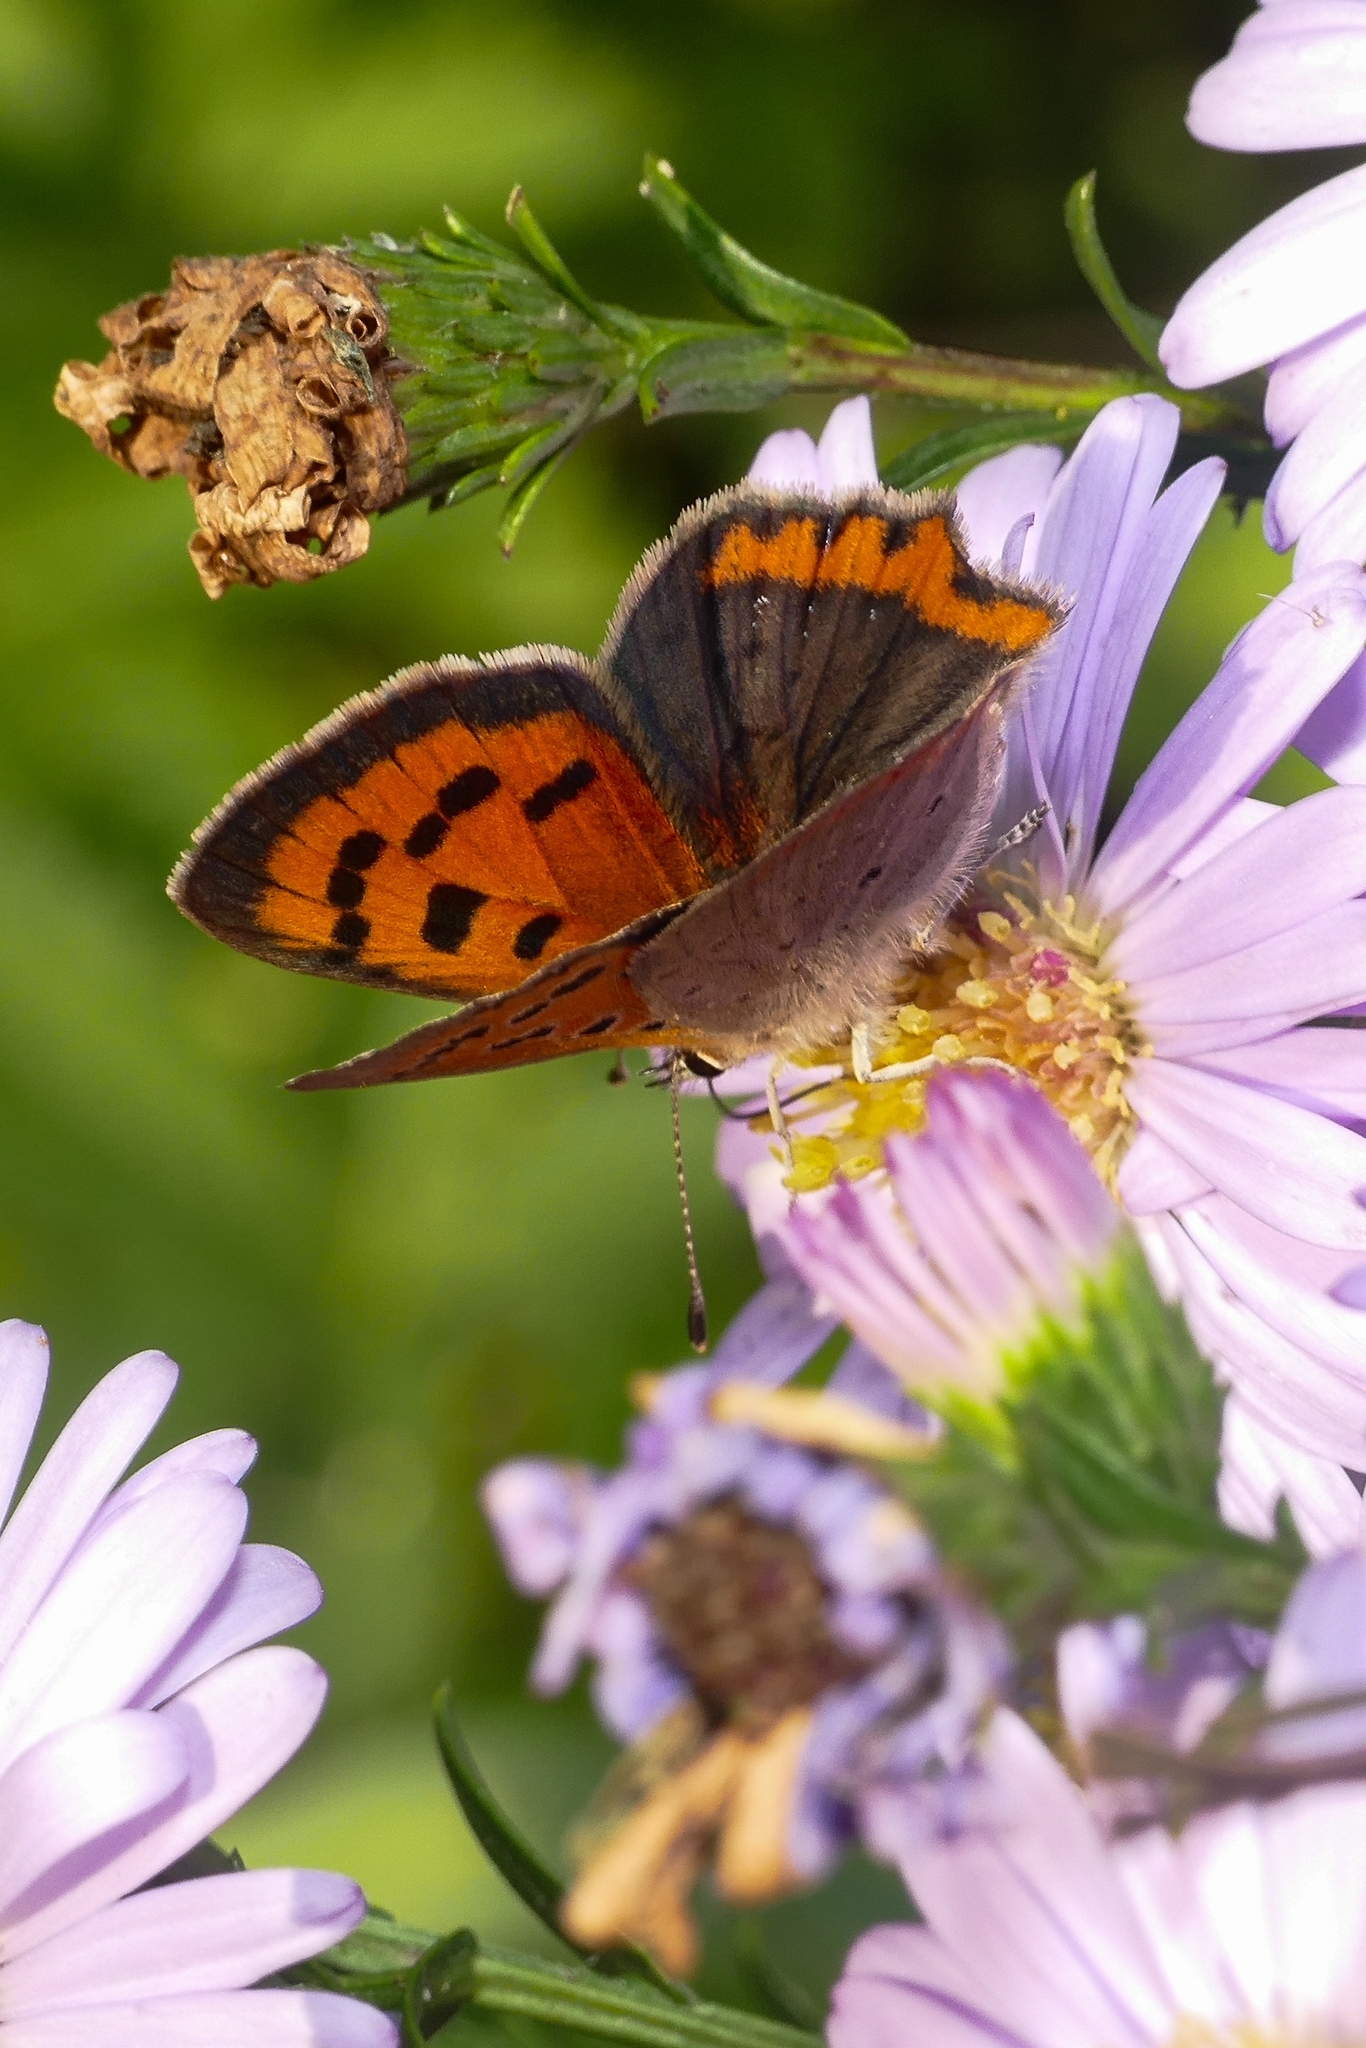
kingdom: Animalia
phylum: Arthropoda
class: Insecta
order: Lepidoptera
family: Lycaenidae
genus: Lycaena
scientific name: Lycaena phlaeas
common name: Small copper
